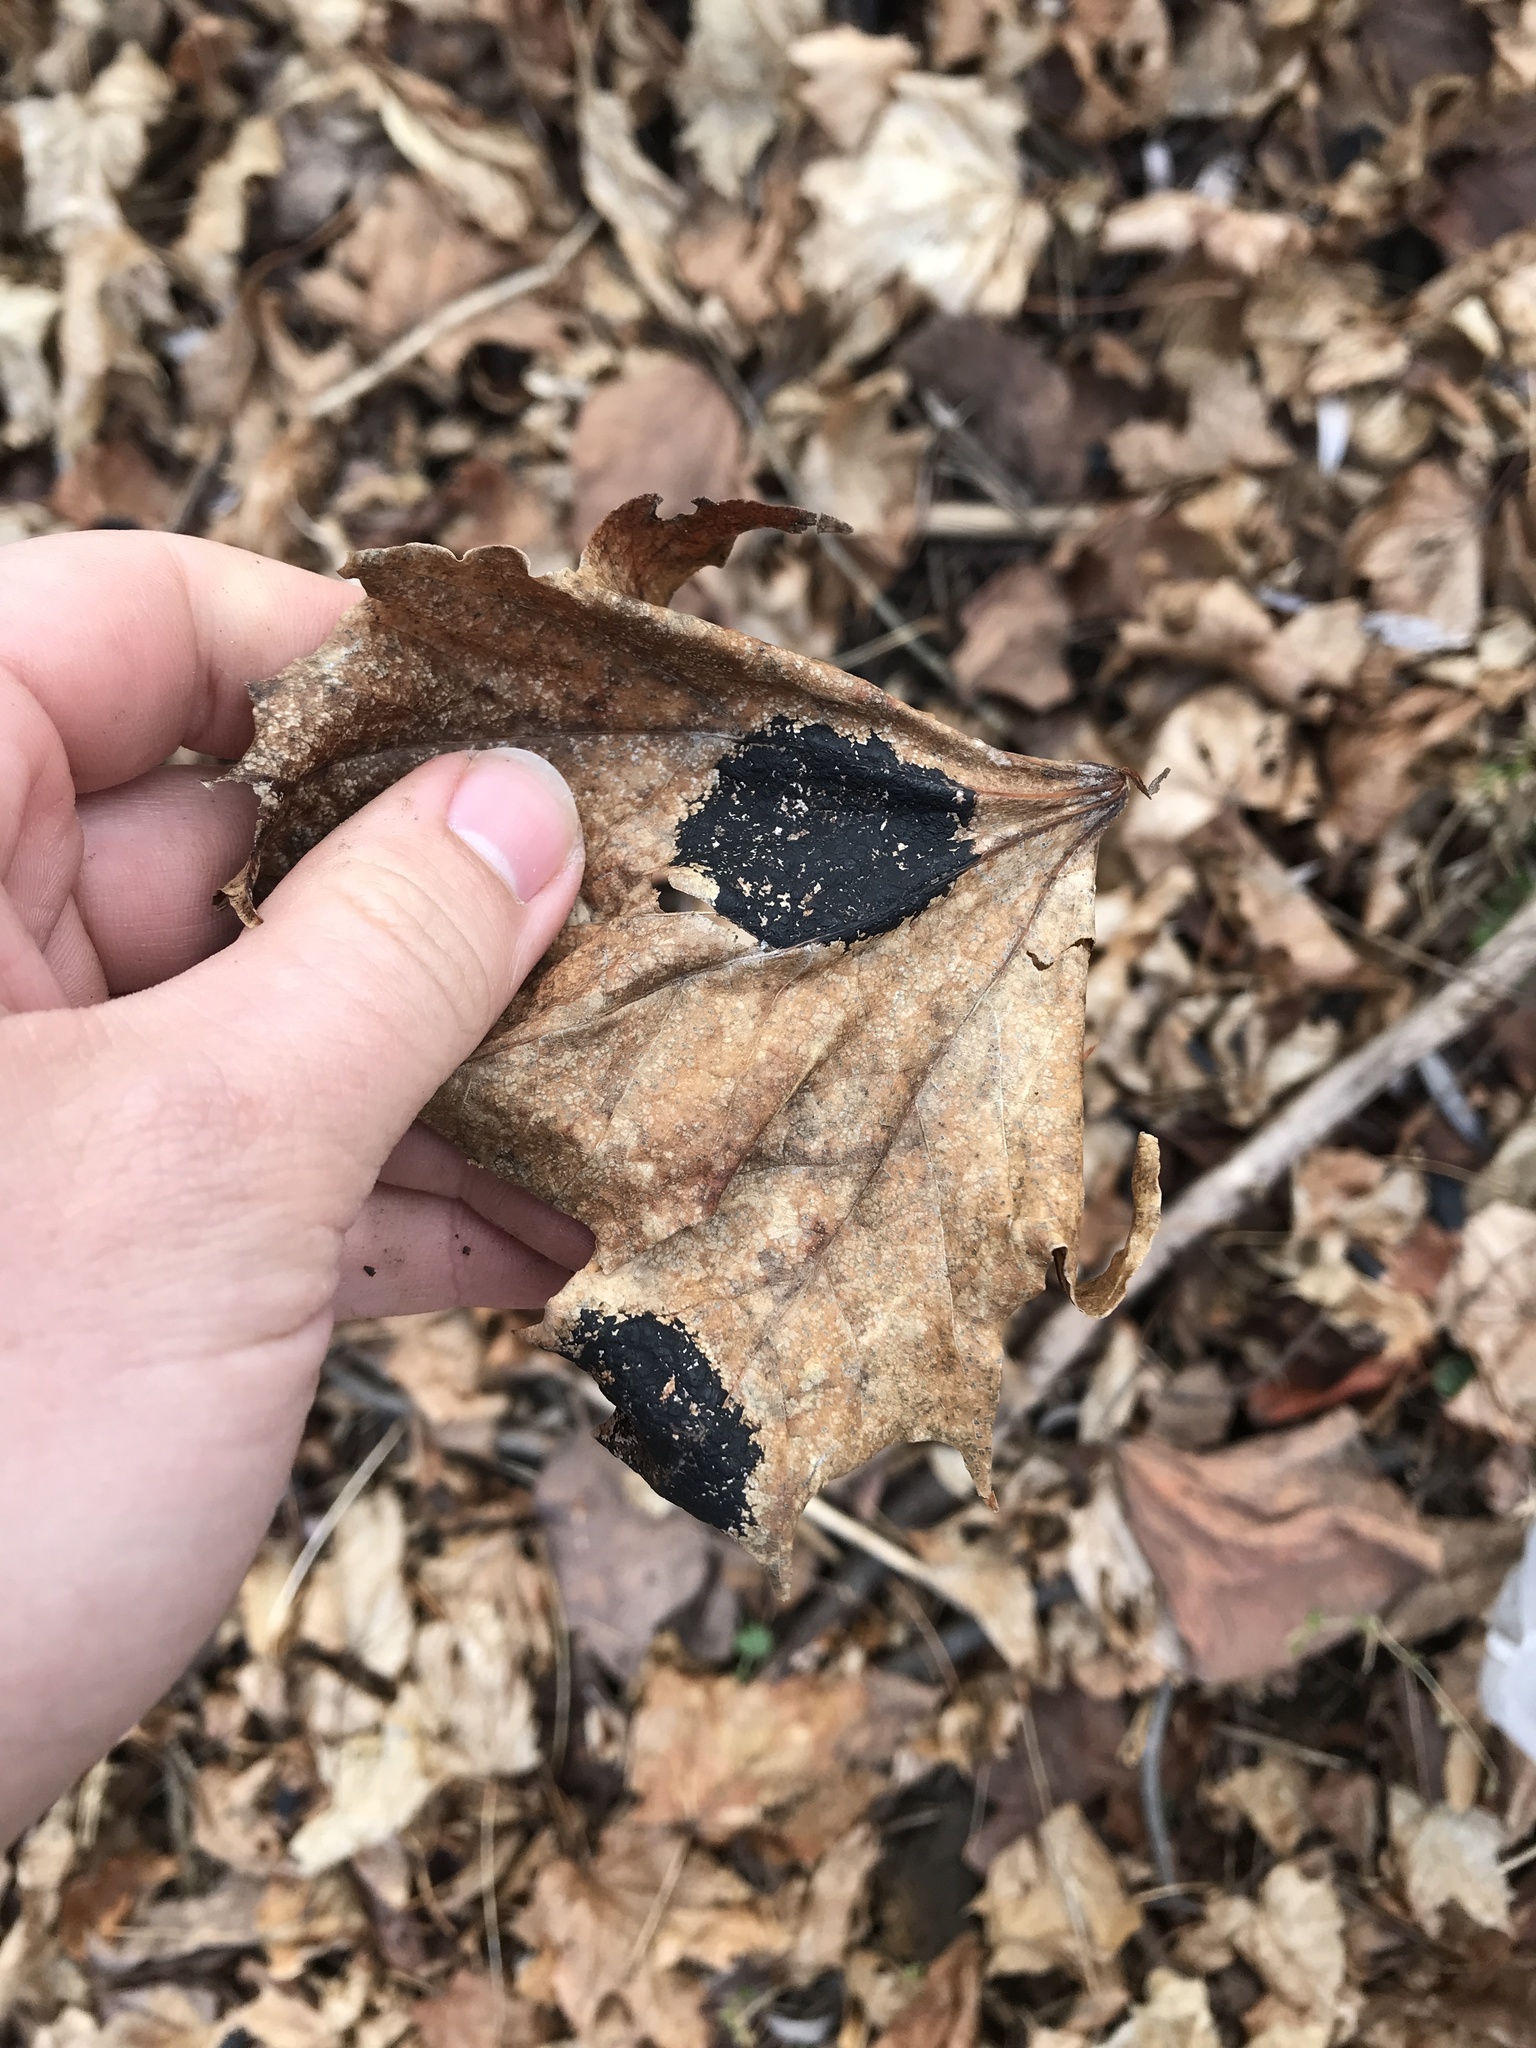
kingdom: Fungi
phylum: Ascomycota
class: Leotiomycetes
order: Rhytismatales
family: Rhytismataceae
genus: Rhytisma
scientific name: Rhytisma acerinum
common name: European tar spot
